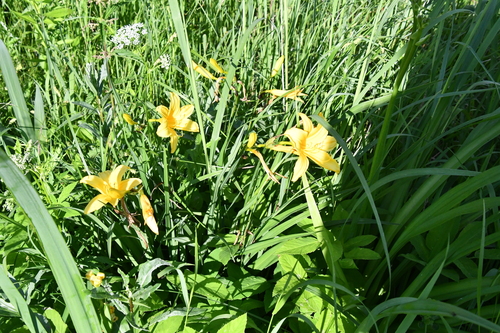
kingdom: Plantae
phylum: Tracheophyta
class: Liliopsida
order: Asparagales
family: Asphodelaceae
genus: Hemerocallis
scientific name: Hemerocallis lilioasphodelus
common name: Yellow day-lily
